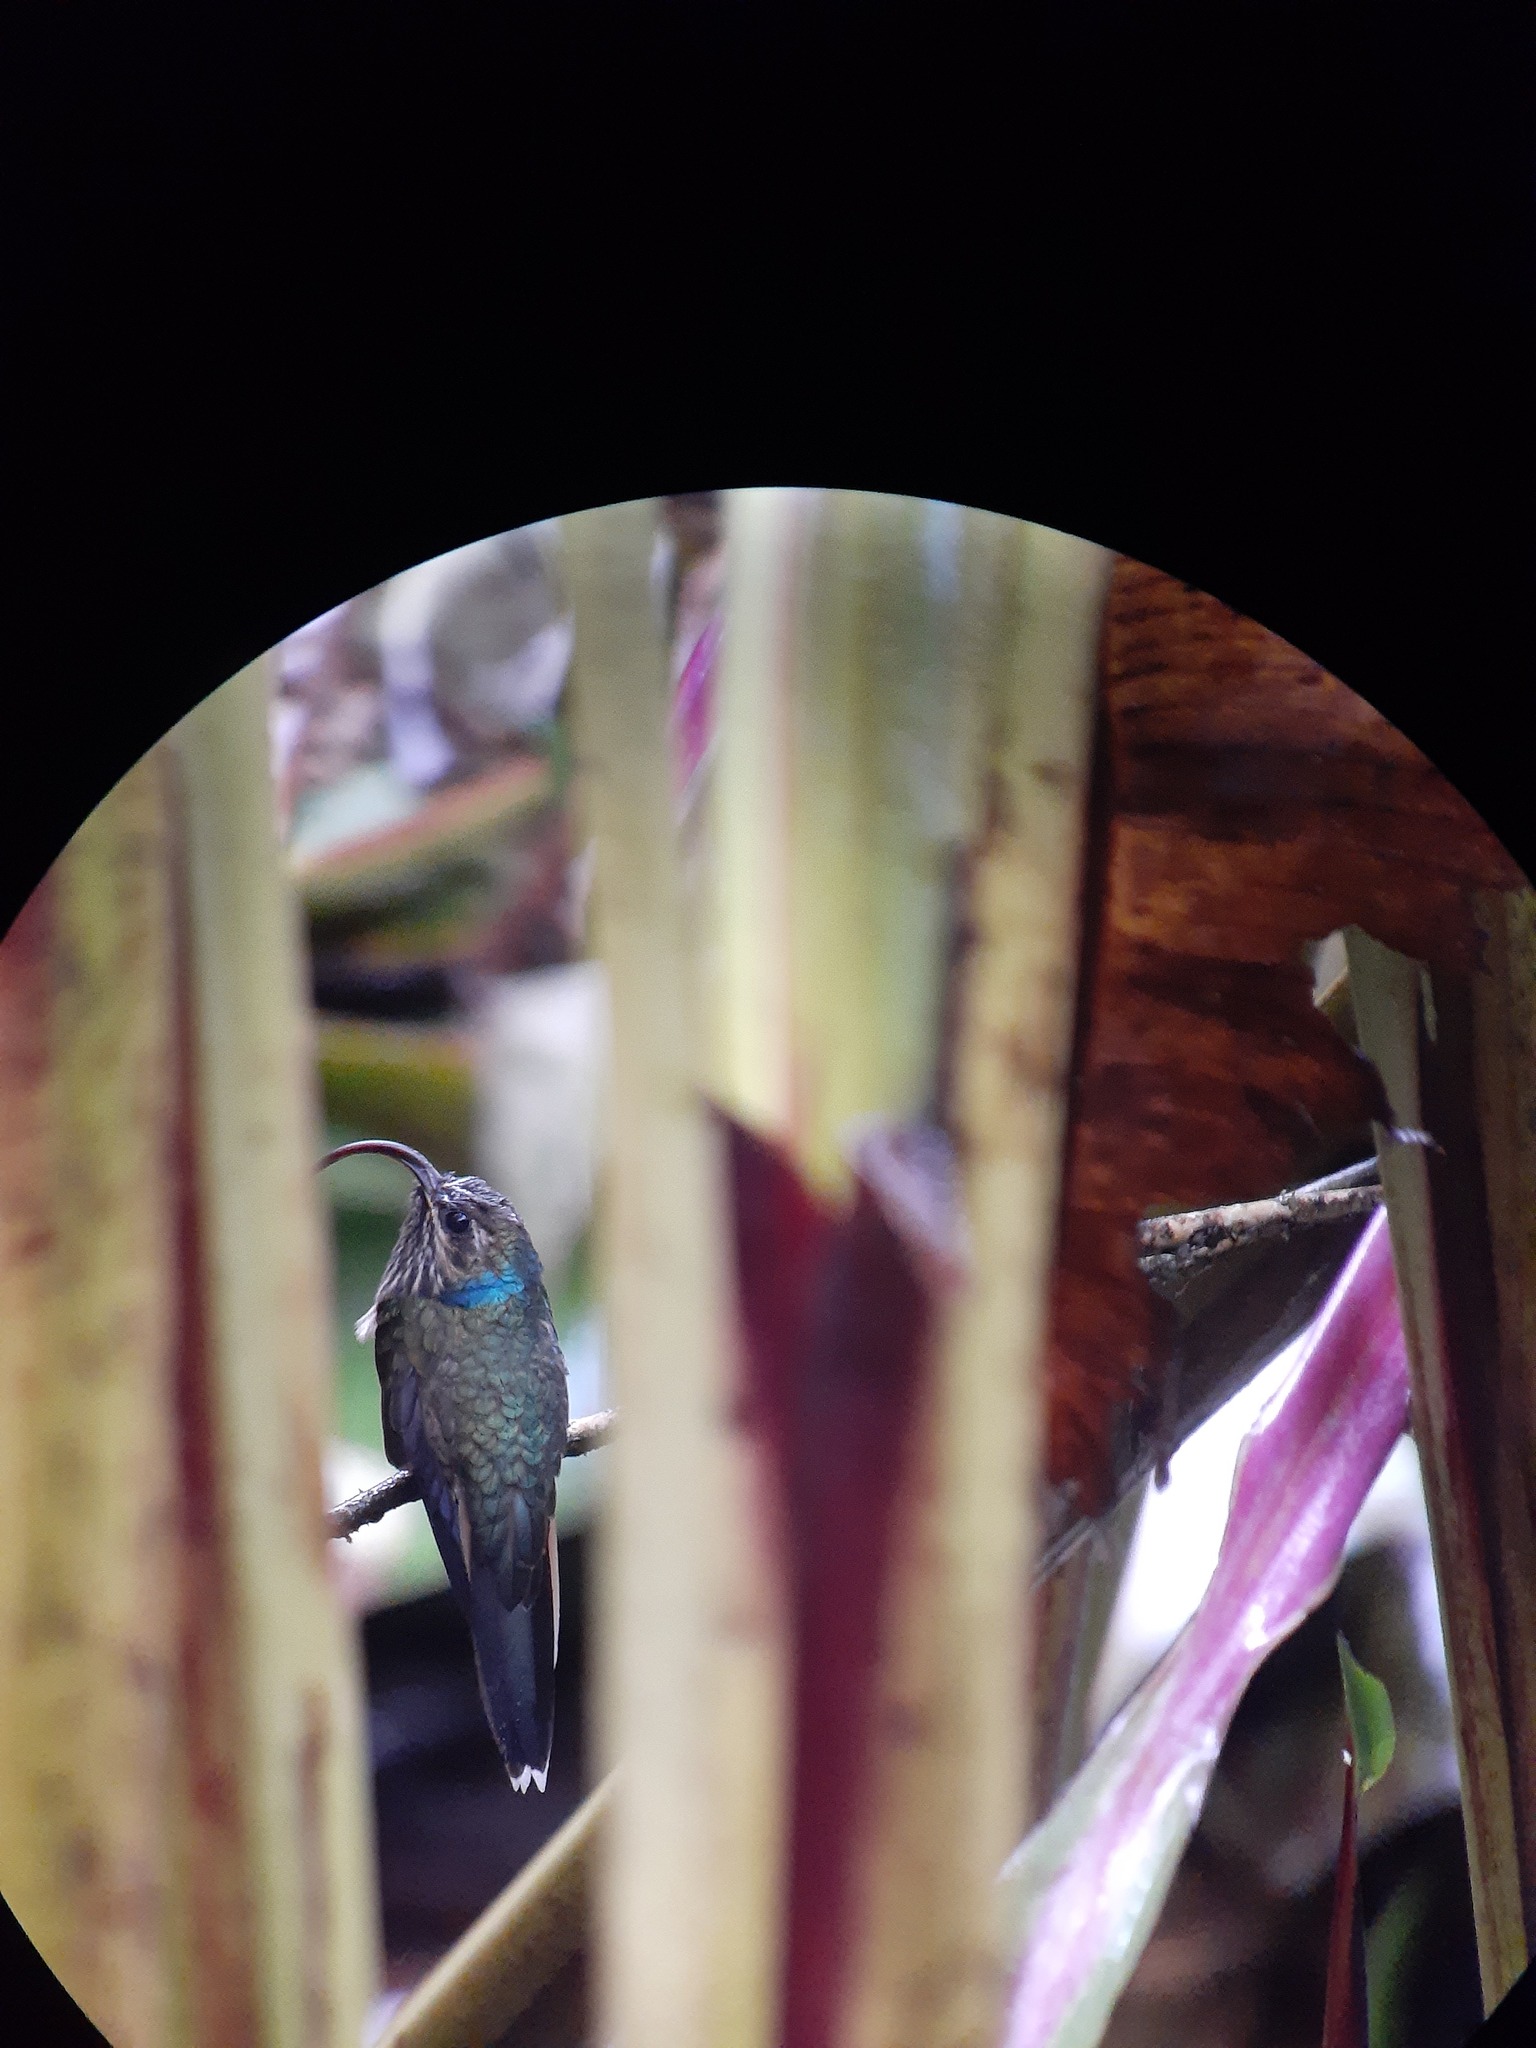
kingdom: Animalia
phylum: Chordata
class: Aves
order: Apodiformes
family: Trochilidae
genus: Eutoxeres
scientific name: Eutoxeres condamini
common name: Buff-tailed sicklebill
